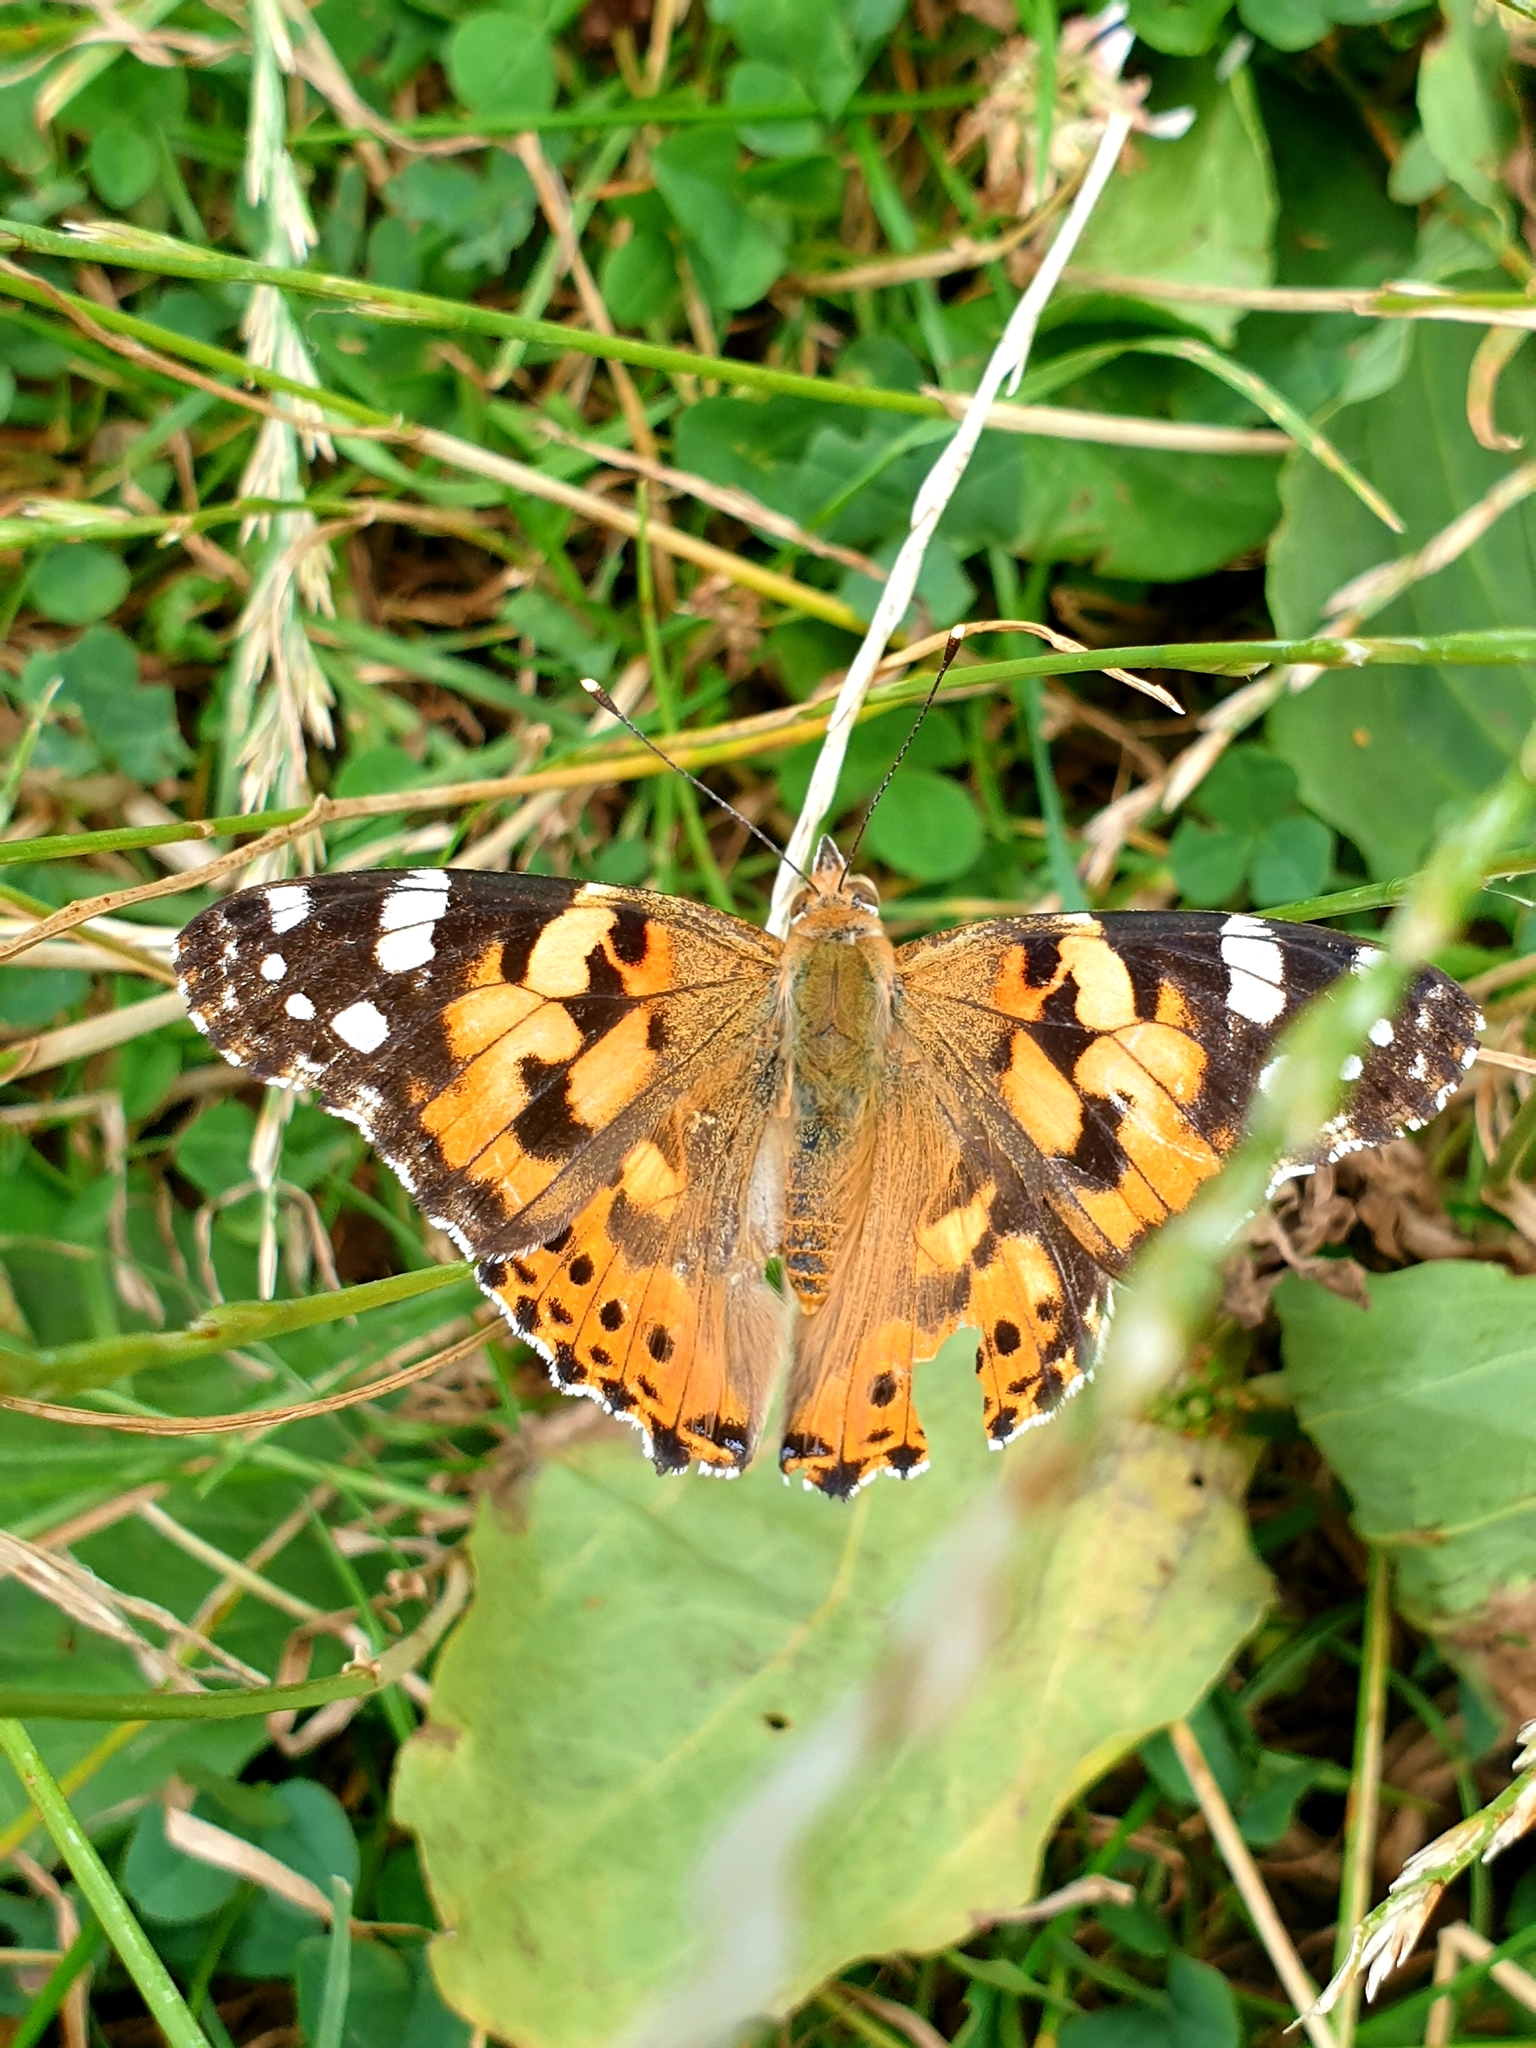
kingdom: Animalia
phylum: Arthropoda
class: Insecta
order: Lepidoptera
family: Nymphalidae
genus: Vanessa
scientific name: Vanessa cardui
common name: Painted lady
